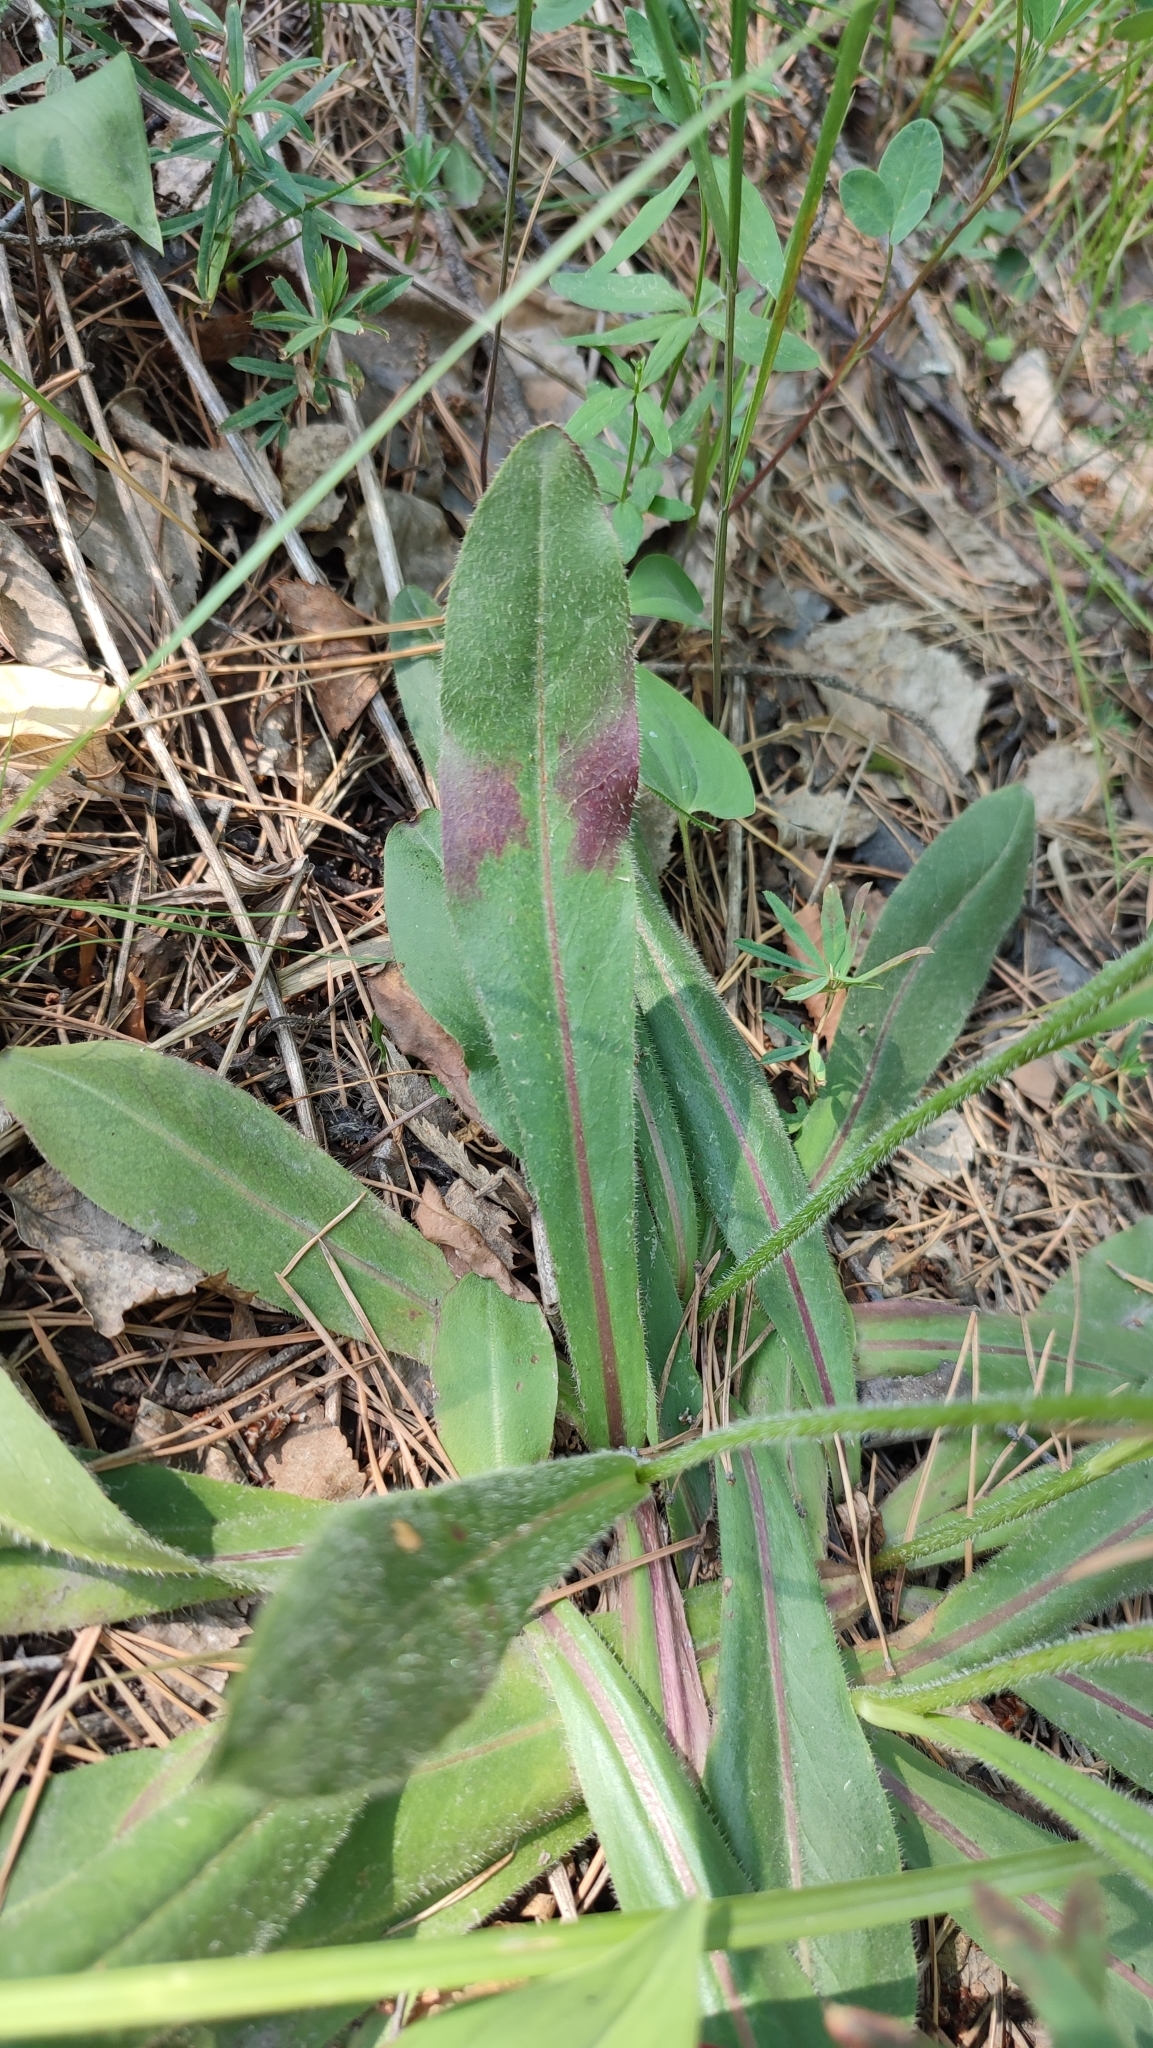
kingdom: Plantae
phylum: Tracheophyta
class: Magnoliopsida
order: Asterales
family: Asteraceae
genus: Trommsdorffia
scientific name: Trommsdorffia maculata
